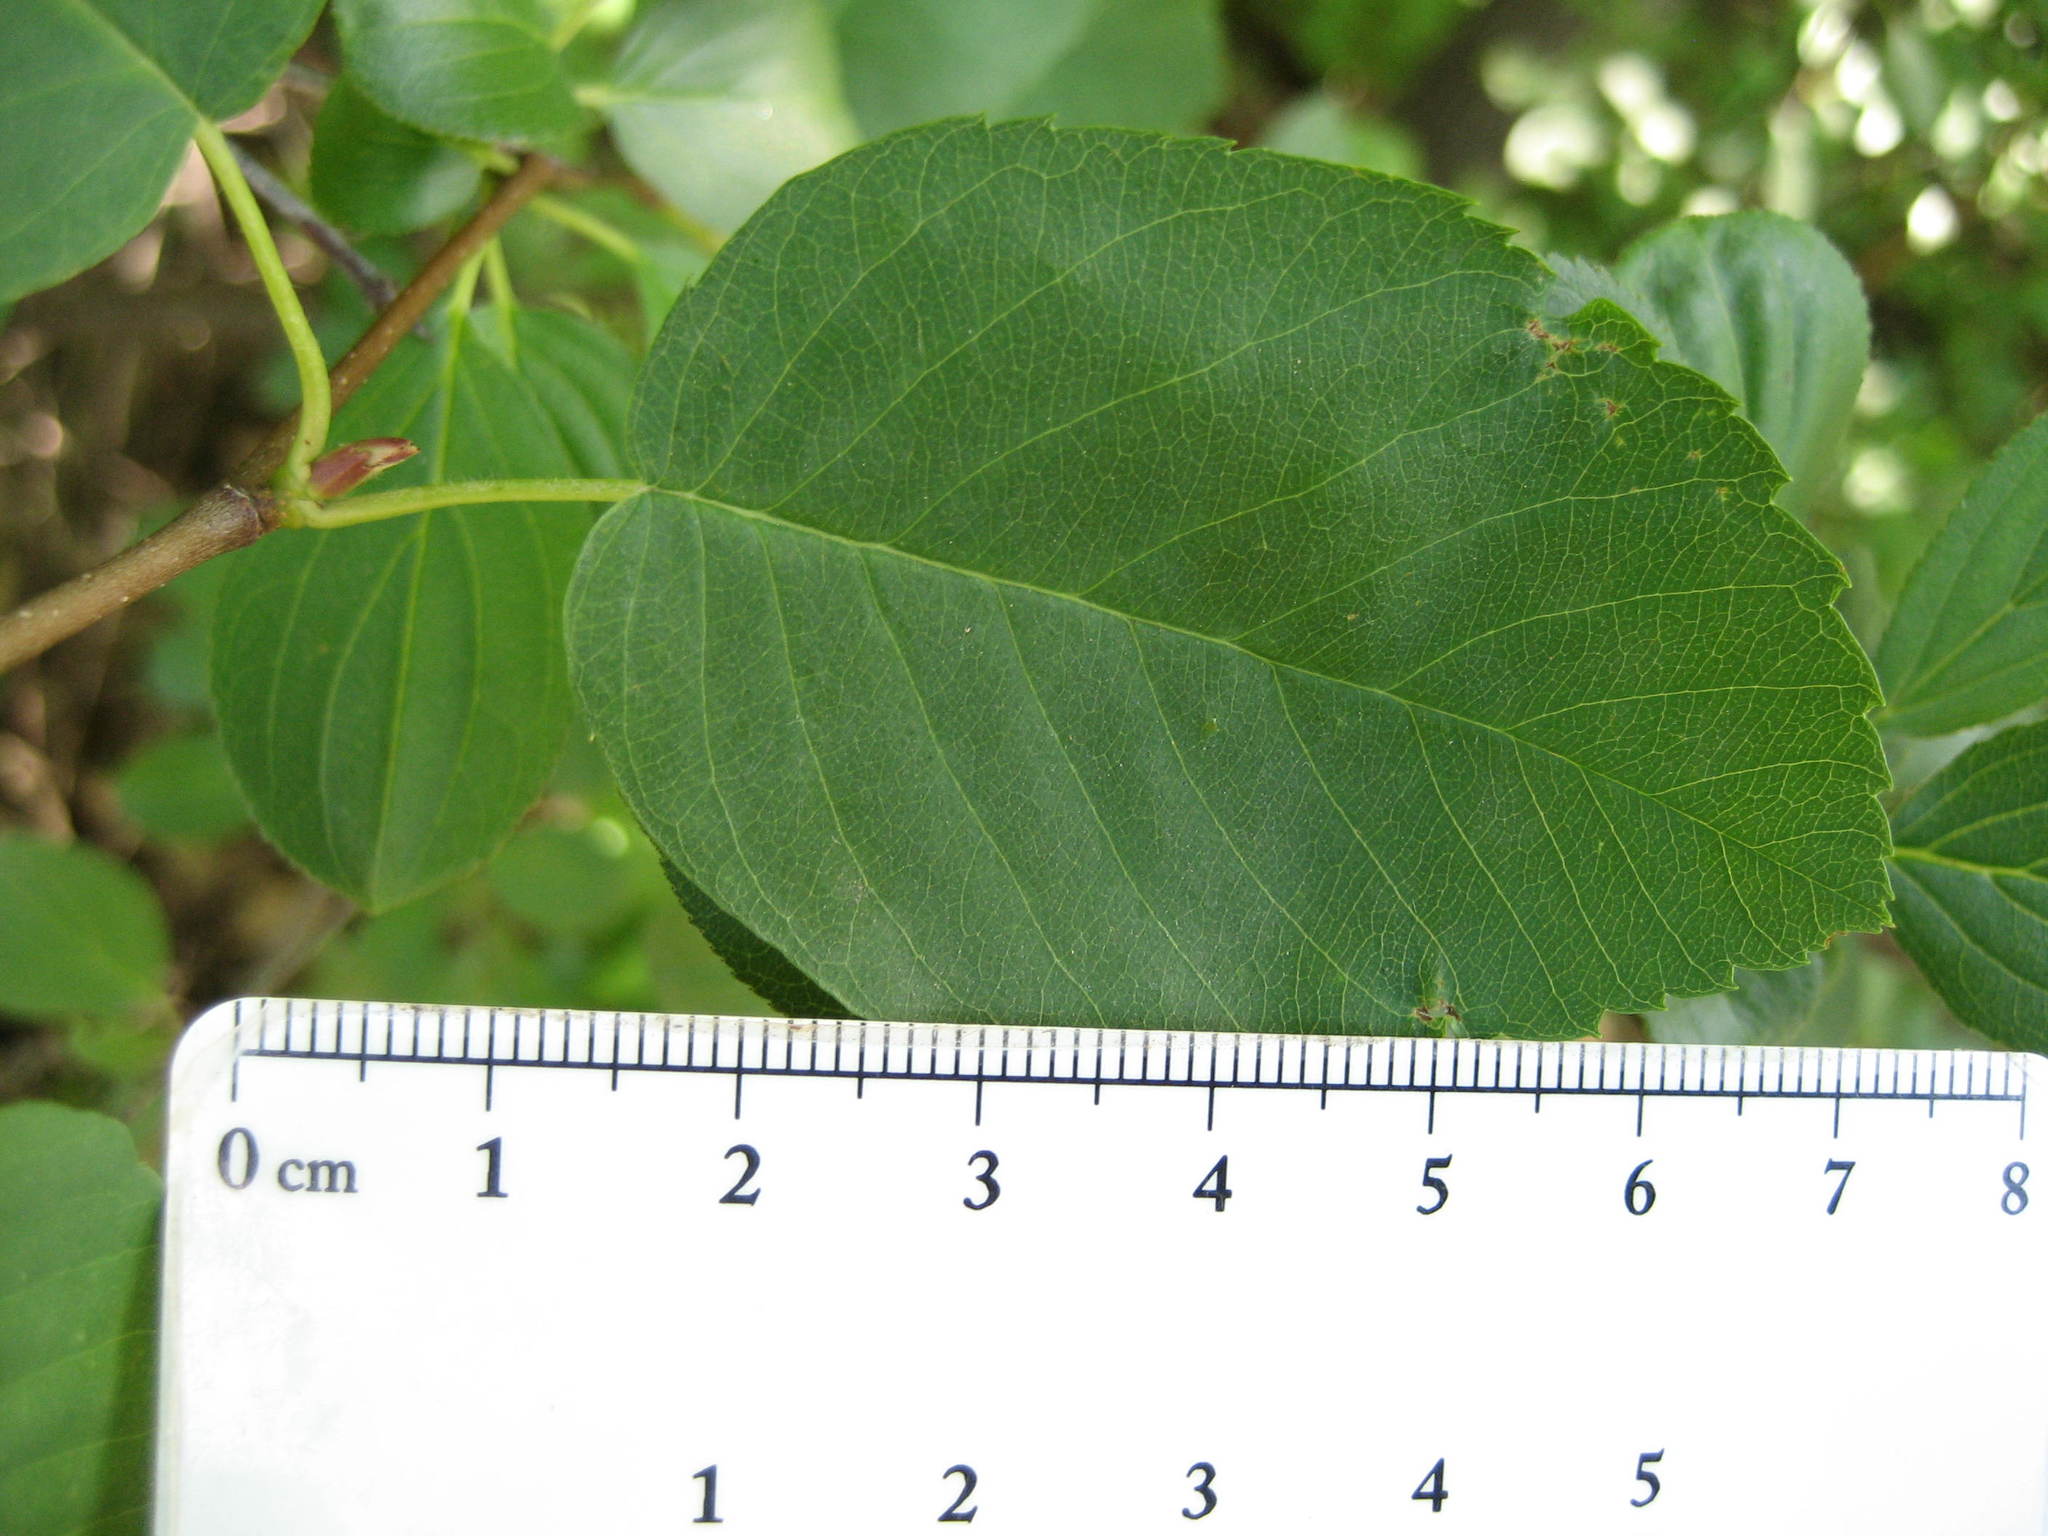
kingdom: Plantae
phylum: Tracheophyta
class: Magnoliopsida
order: Rosales
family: Rosaceae
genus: Amelanchier
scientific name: Amelanchier sanguinea
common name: Huron serviceberry
